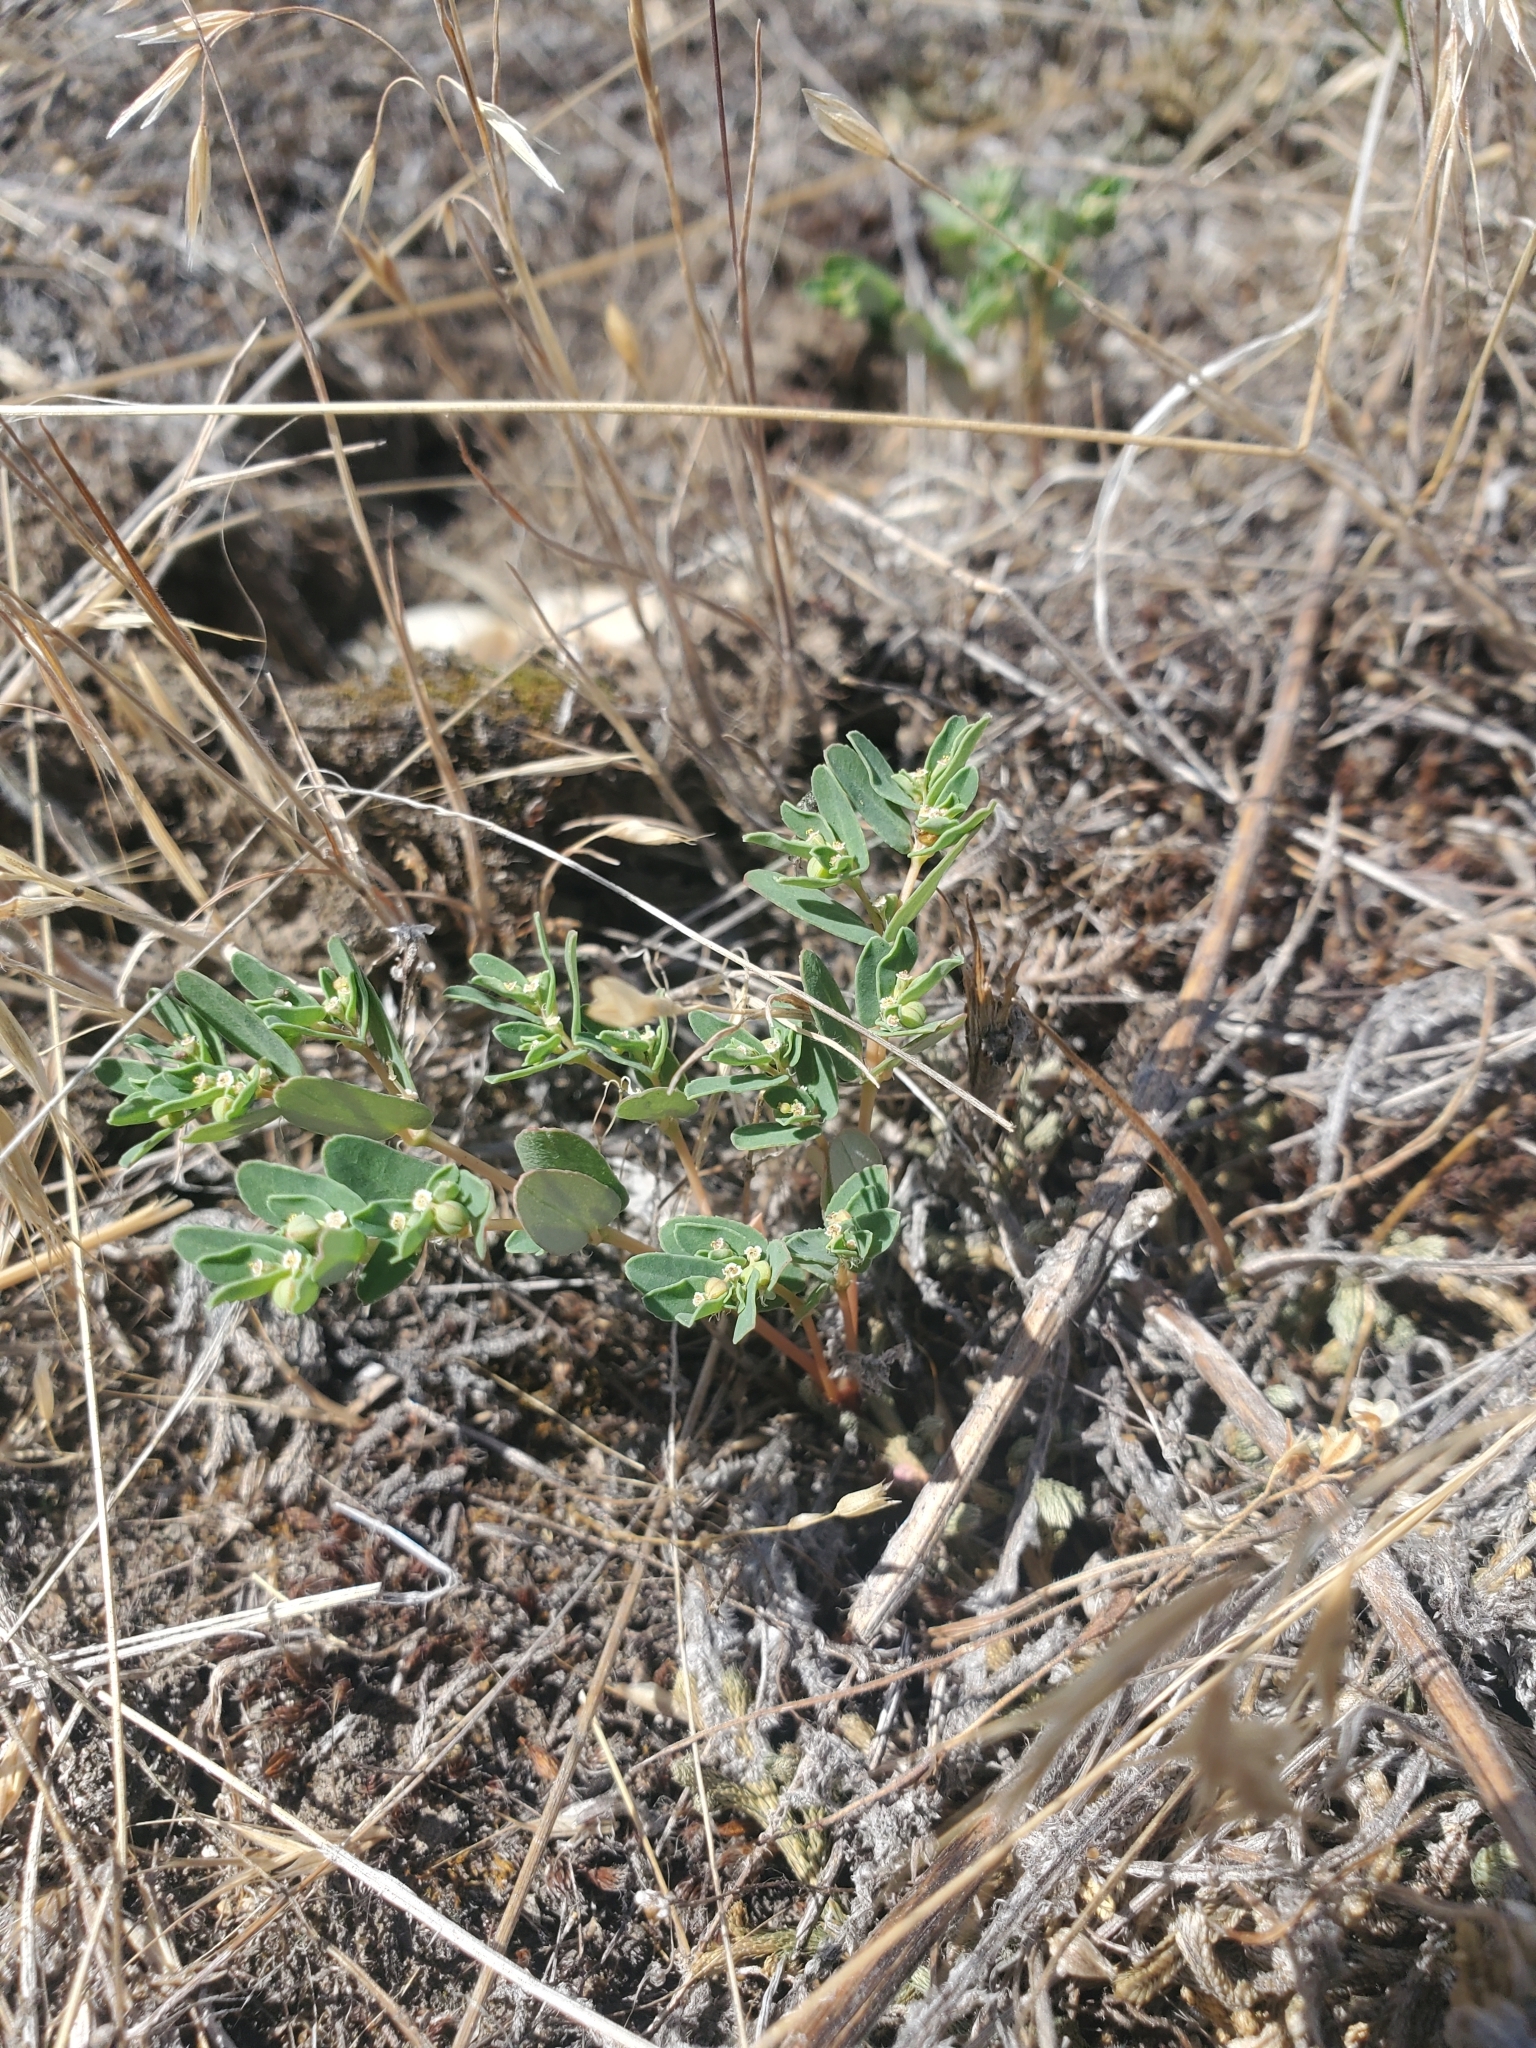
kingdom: Plantae
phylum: Tracheophyta
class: Magnoliopsida
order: Malpighiales
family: Euphorbiaceae
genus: Euphorbia
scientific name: Euphorbia glyptosperma
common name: Corrugate-seeded spurge
